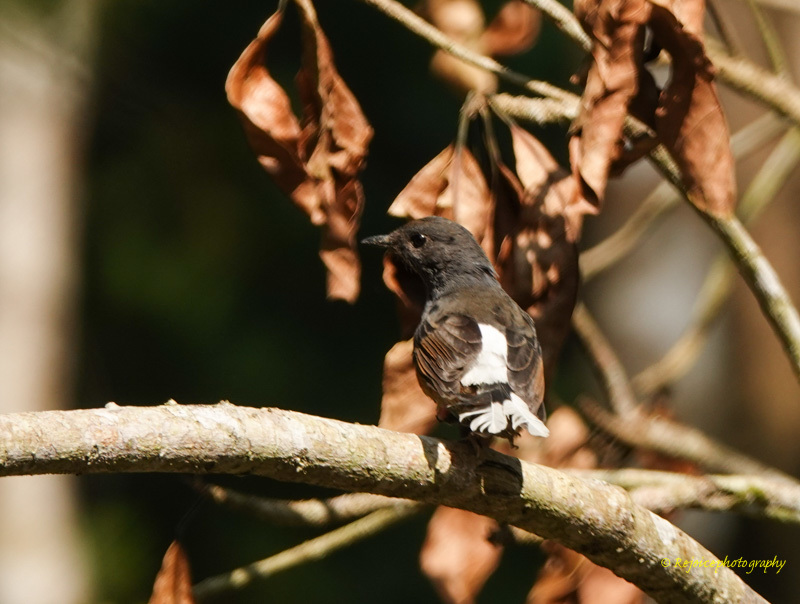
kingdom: Animalia
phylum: Chordata
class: Aves
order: Passeriformes
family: Muscicapidae
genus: Copsychus
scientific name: Copsychus malabaricus
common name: White-rumped shama
